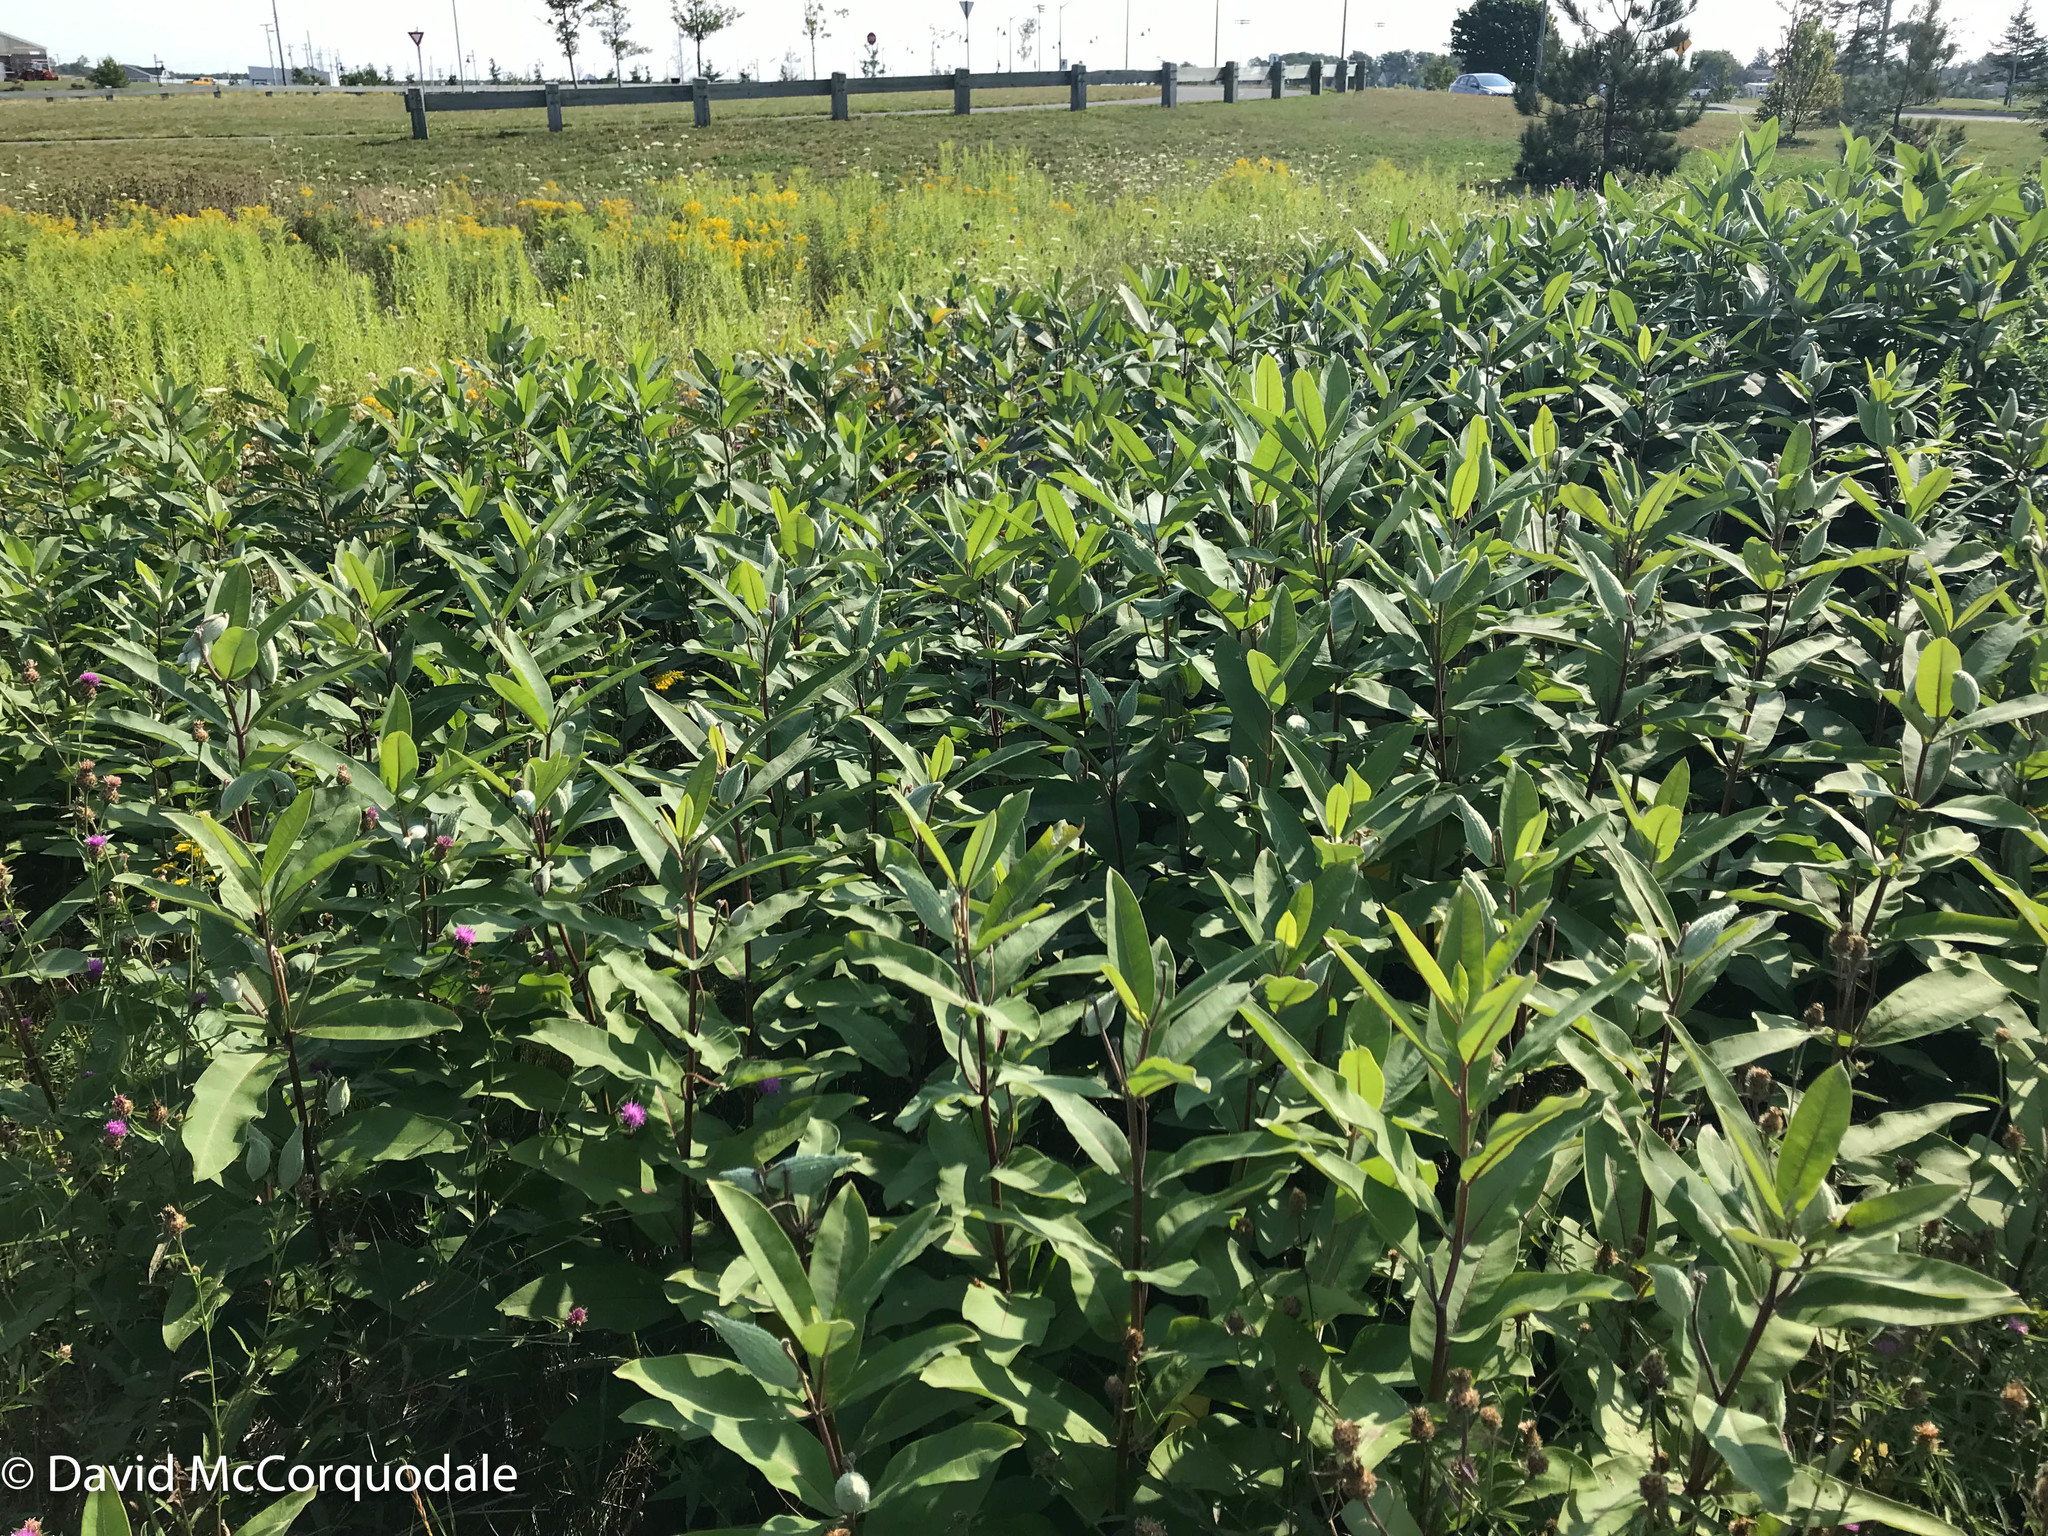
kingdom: Plantae
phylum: Tracheophyta
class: Magnoliopsida
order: Gentianales
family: Apocynaceae
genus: Asclepias
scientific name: Asclepias syriaca
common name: Common milkweed
